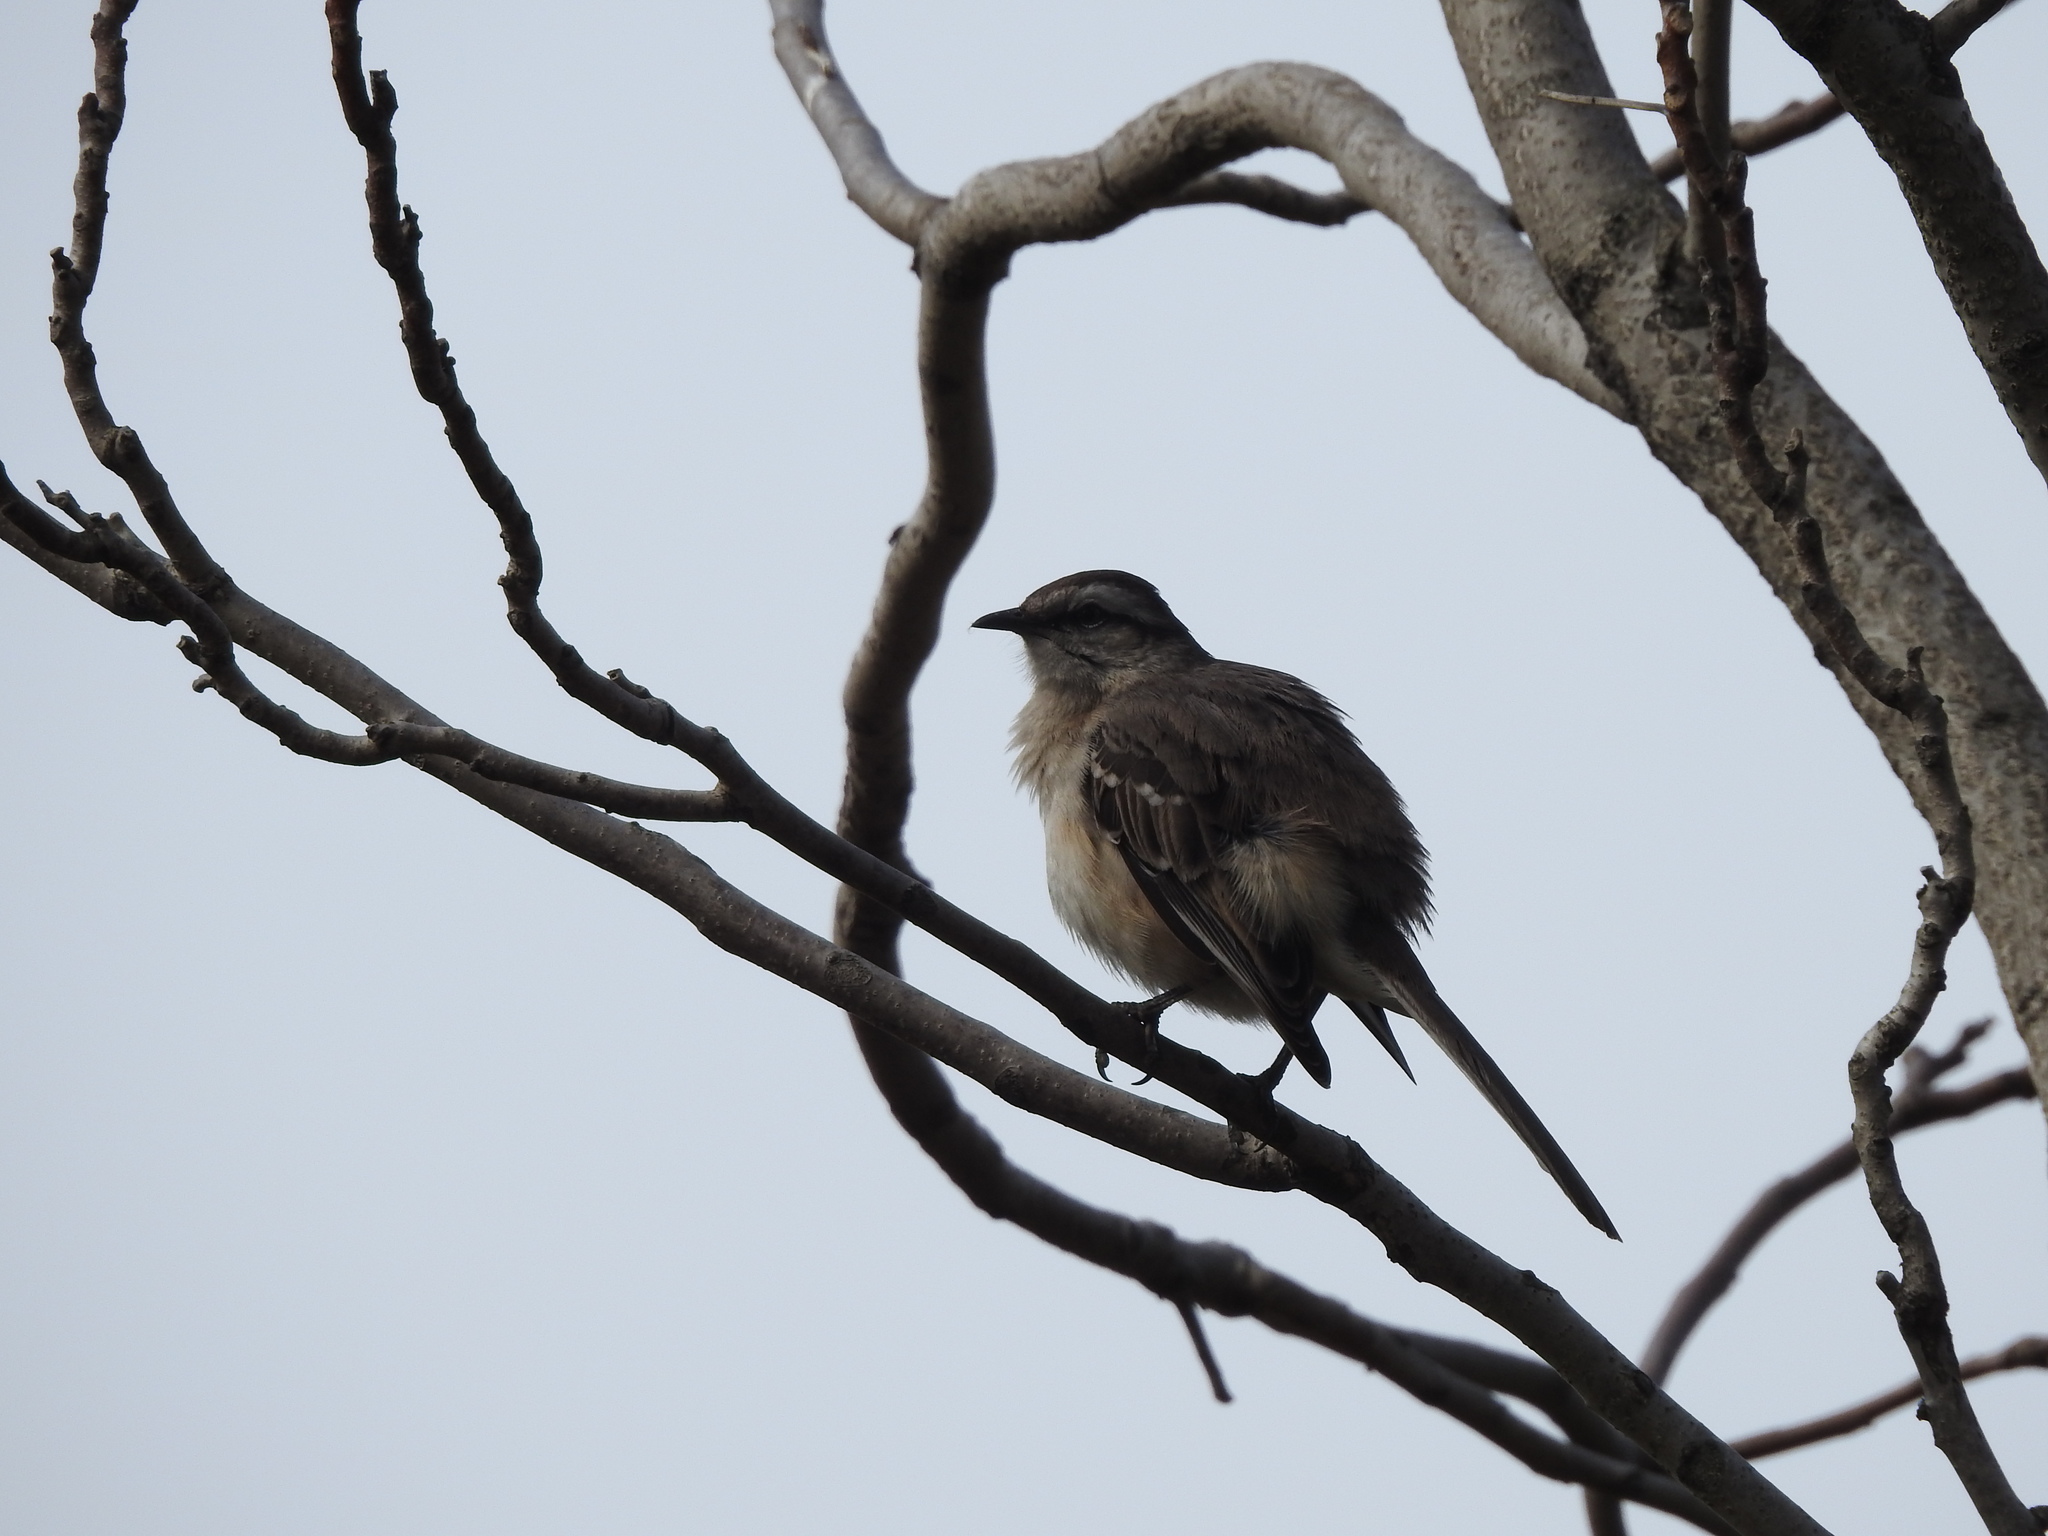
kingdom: Animalia
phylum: Chordata
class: Aves
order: Passeriformes
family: Mimidae
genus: Mimus
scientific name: Mimus saturninus
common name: Chalk-browed mockingbird
